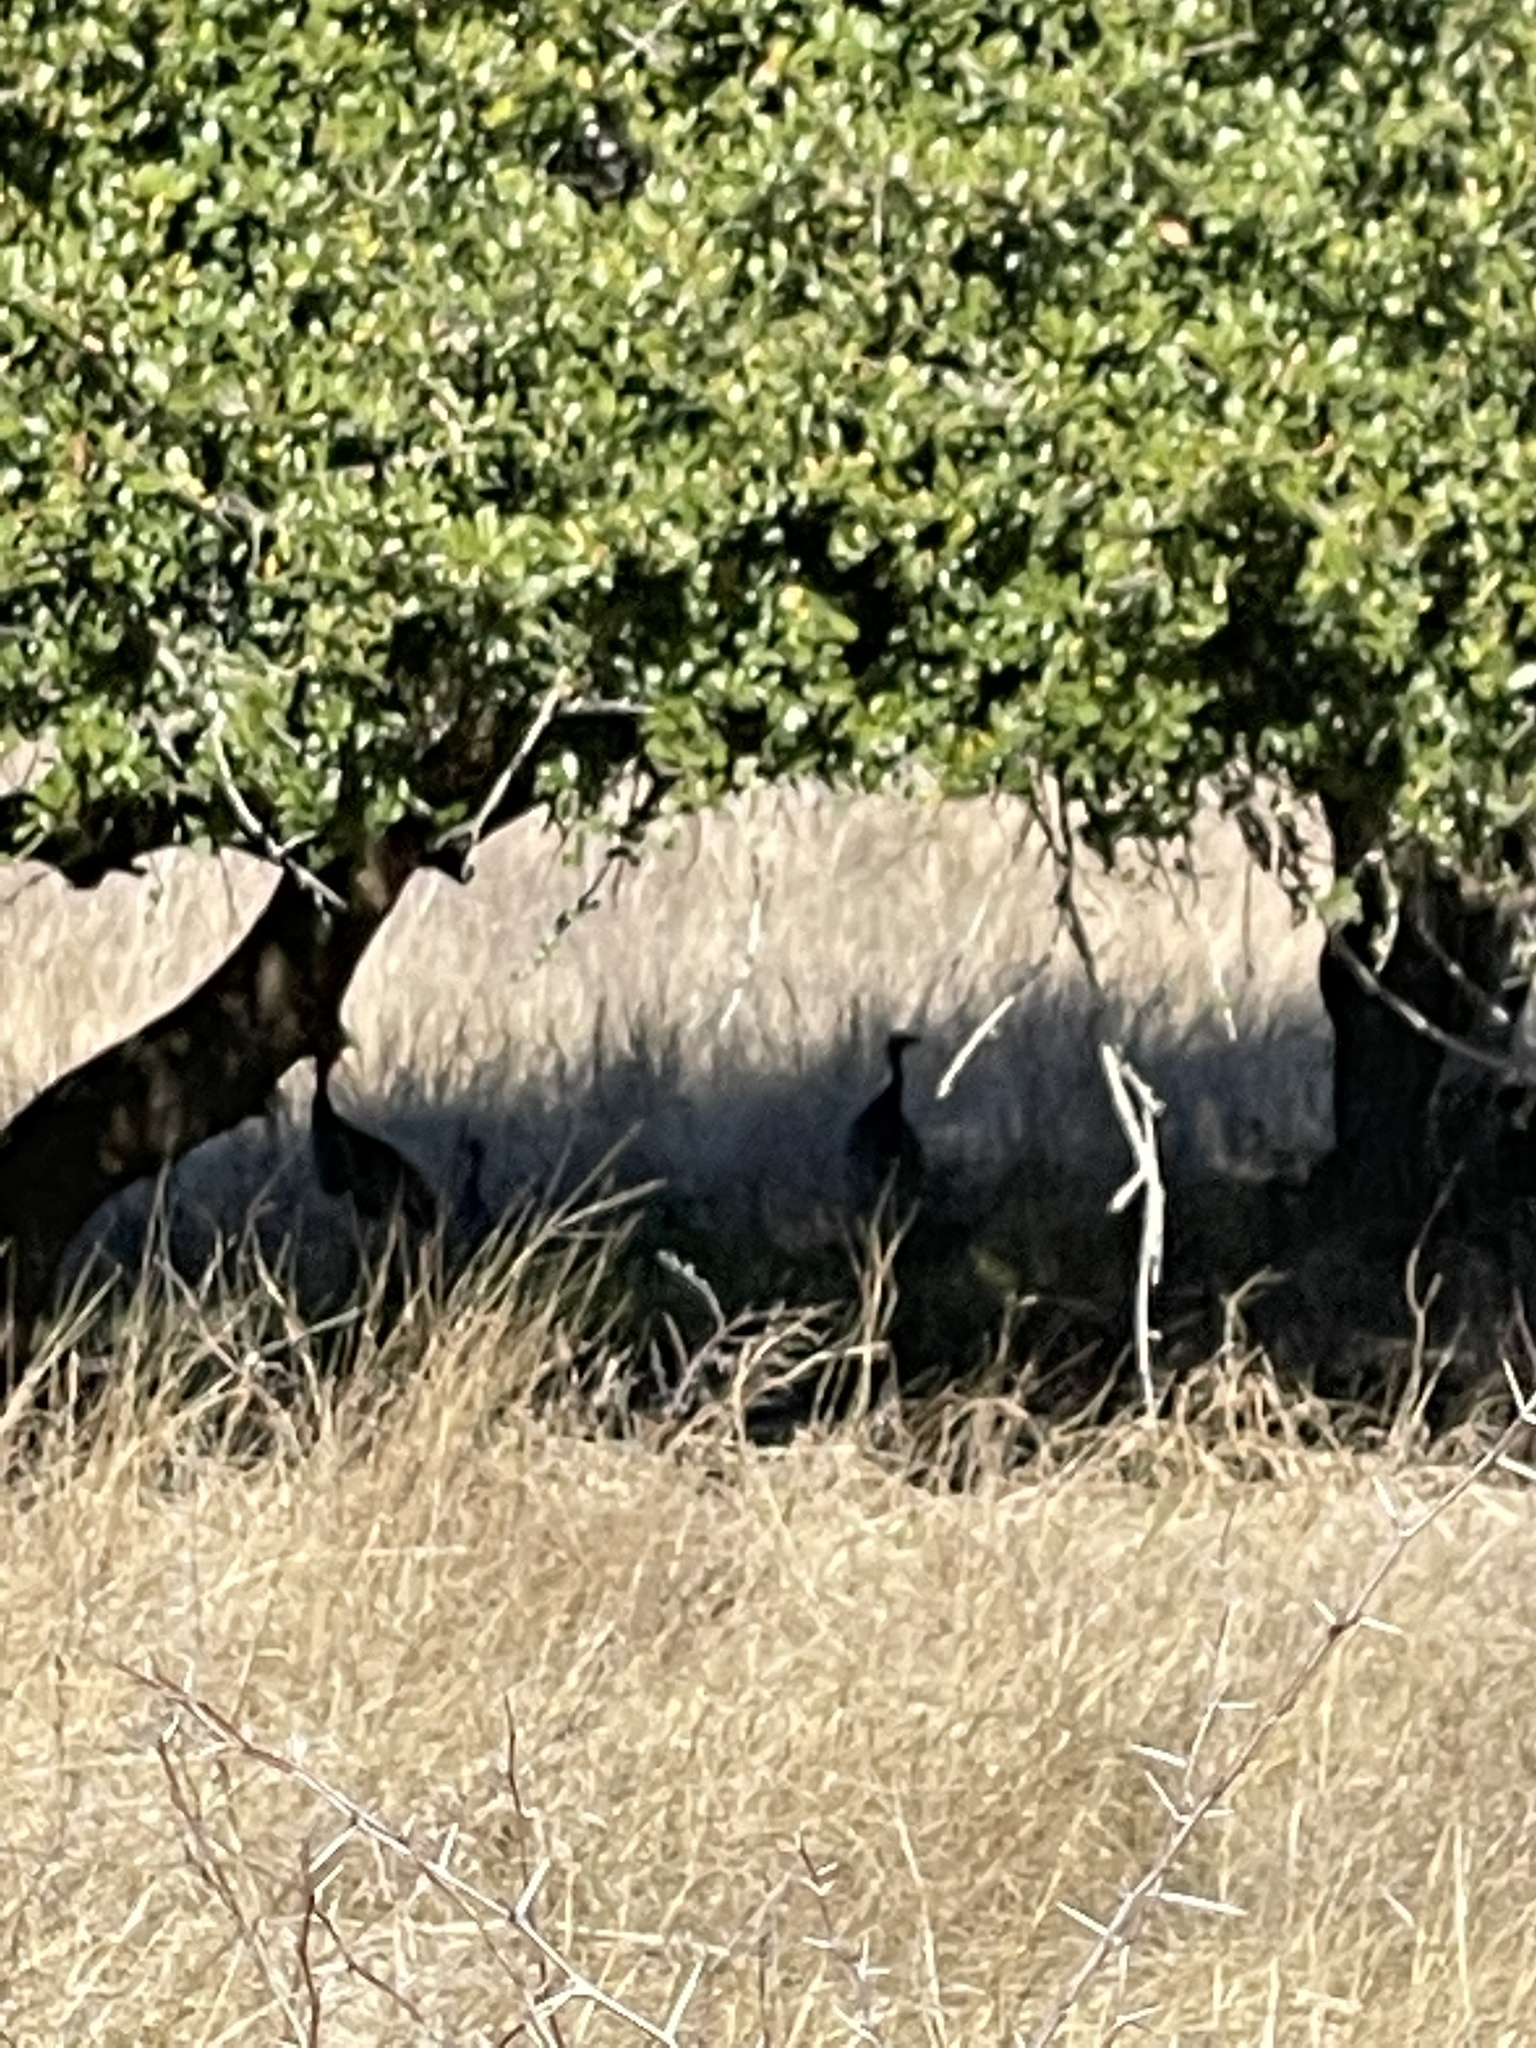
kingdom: Animalia
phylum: Chordata
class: Aves
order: Galliformes
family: Phasianidae
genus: Meleagris
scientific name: Meleagris gallopavo
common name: Wild turkey
